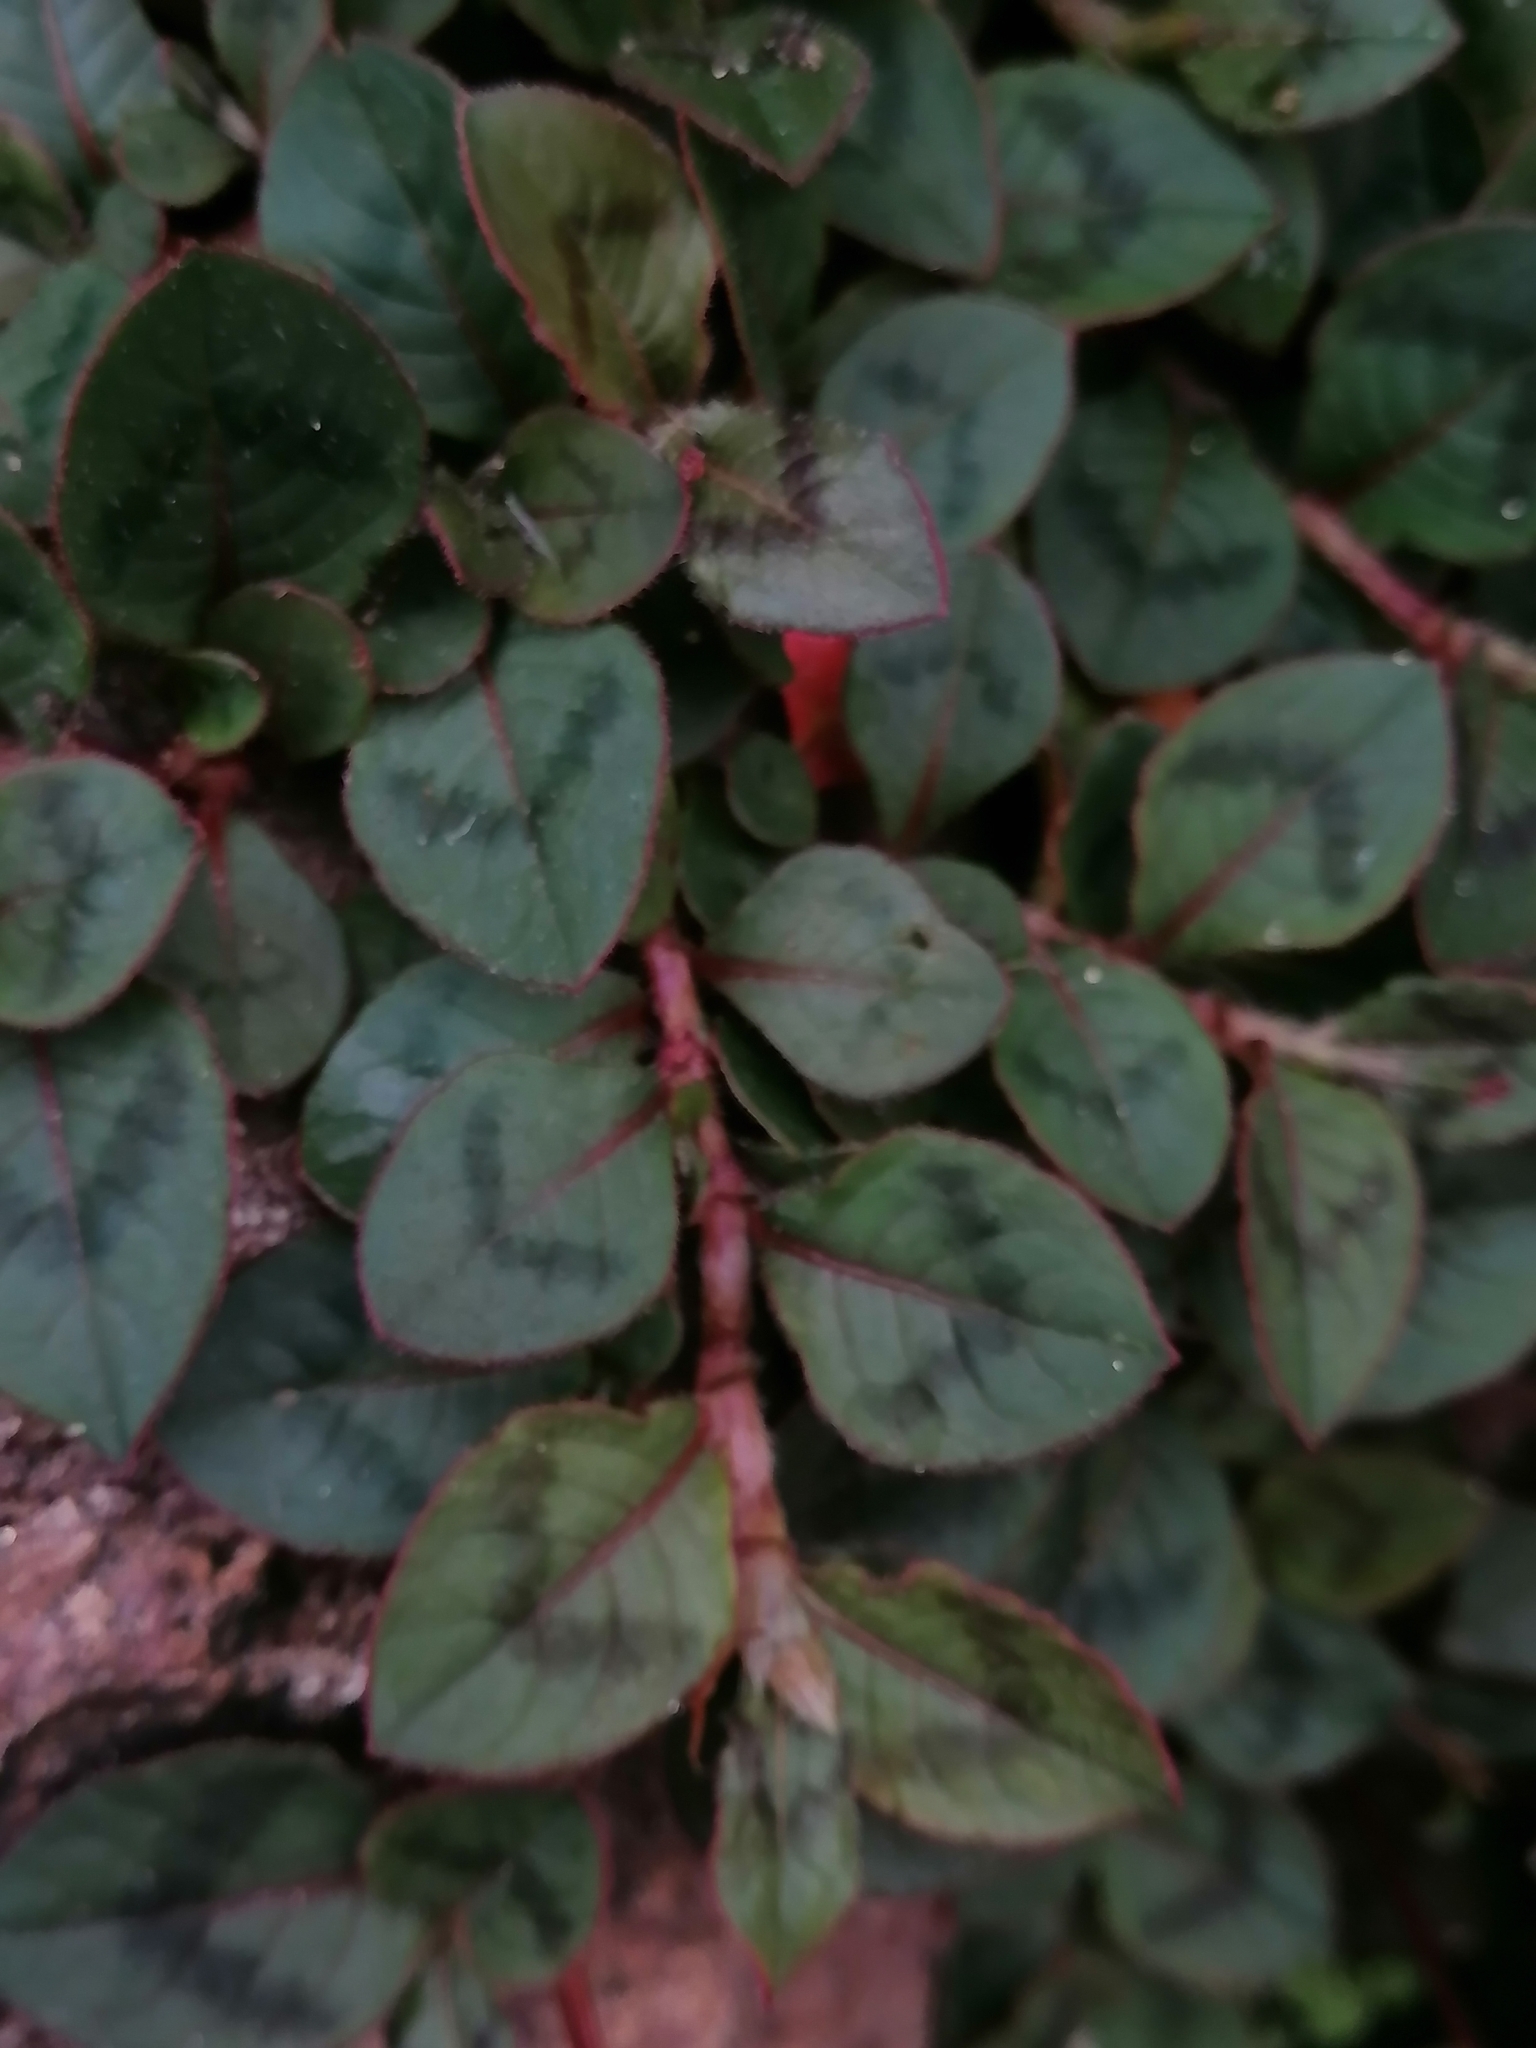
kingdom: Plantae
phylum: Tracheophyta
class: Magnoliopsida
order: Caryophyllales
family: Polygonaceae
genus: Persicaria
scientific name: Persicaria capitata
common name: Pinkhead smartweed
